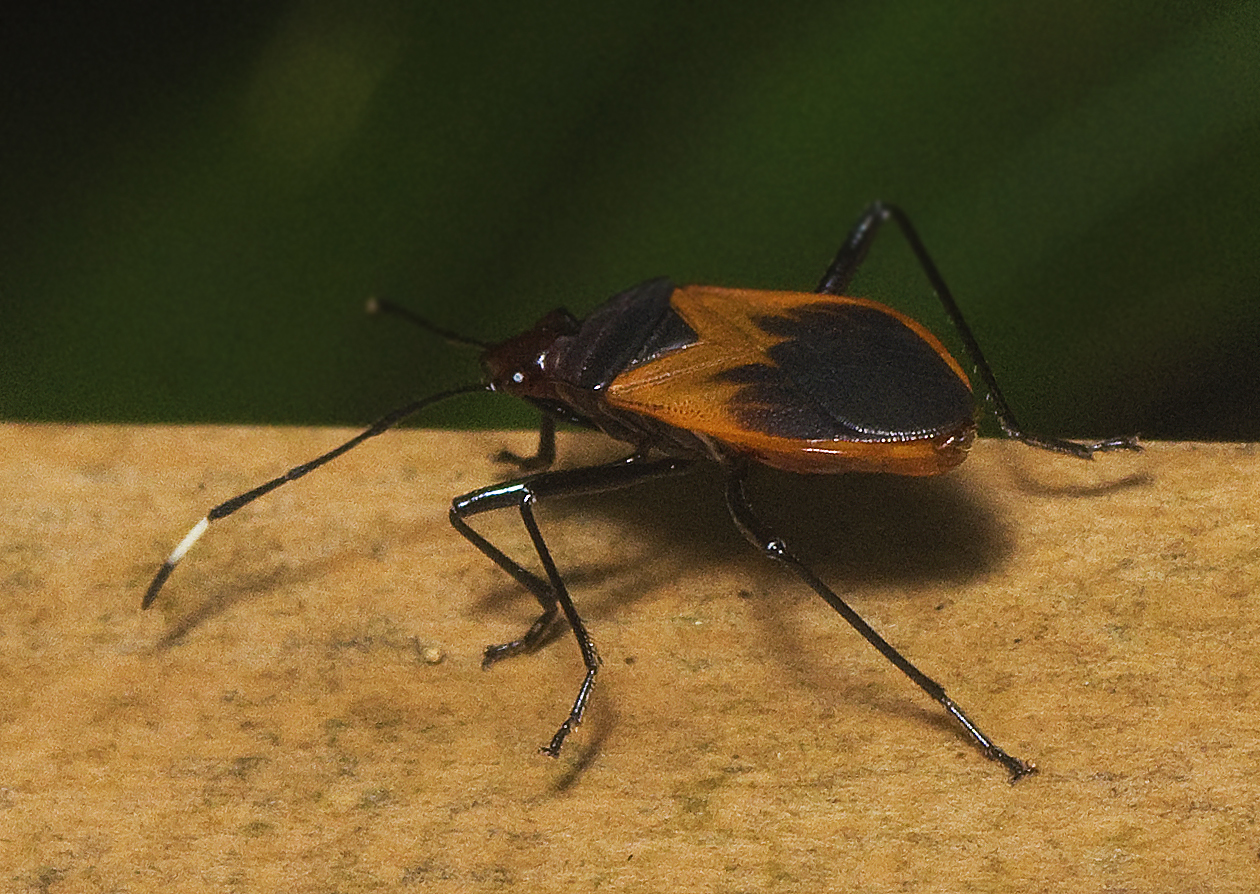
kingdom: Animalia
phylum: Arthropoda
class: Insecta
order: Hemiptera
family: Pyrrhocoridae
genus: Dindymus
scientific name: Dindymus
